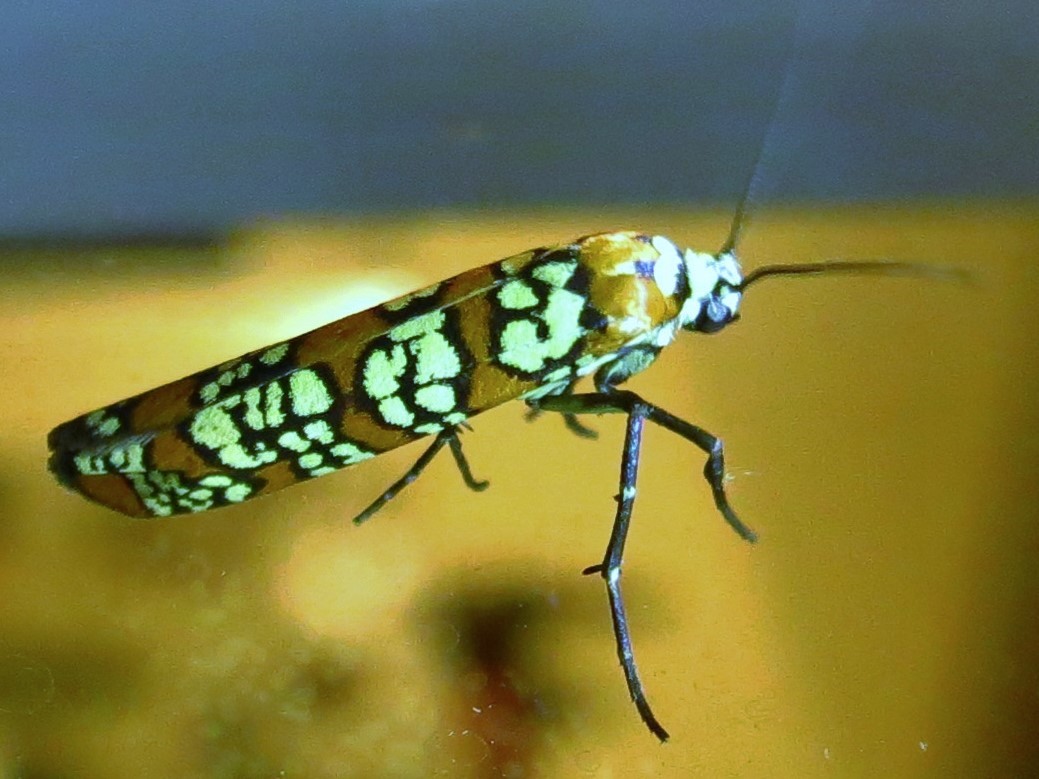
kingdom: Animalia
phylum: Arthropoda
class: Insecta
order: Lepidoptera
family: Attevidae
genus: Atteva
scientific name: Atteva punctella
